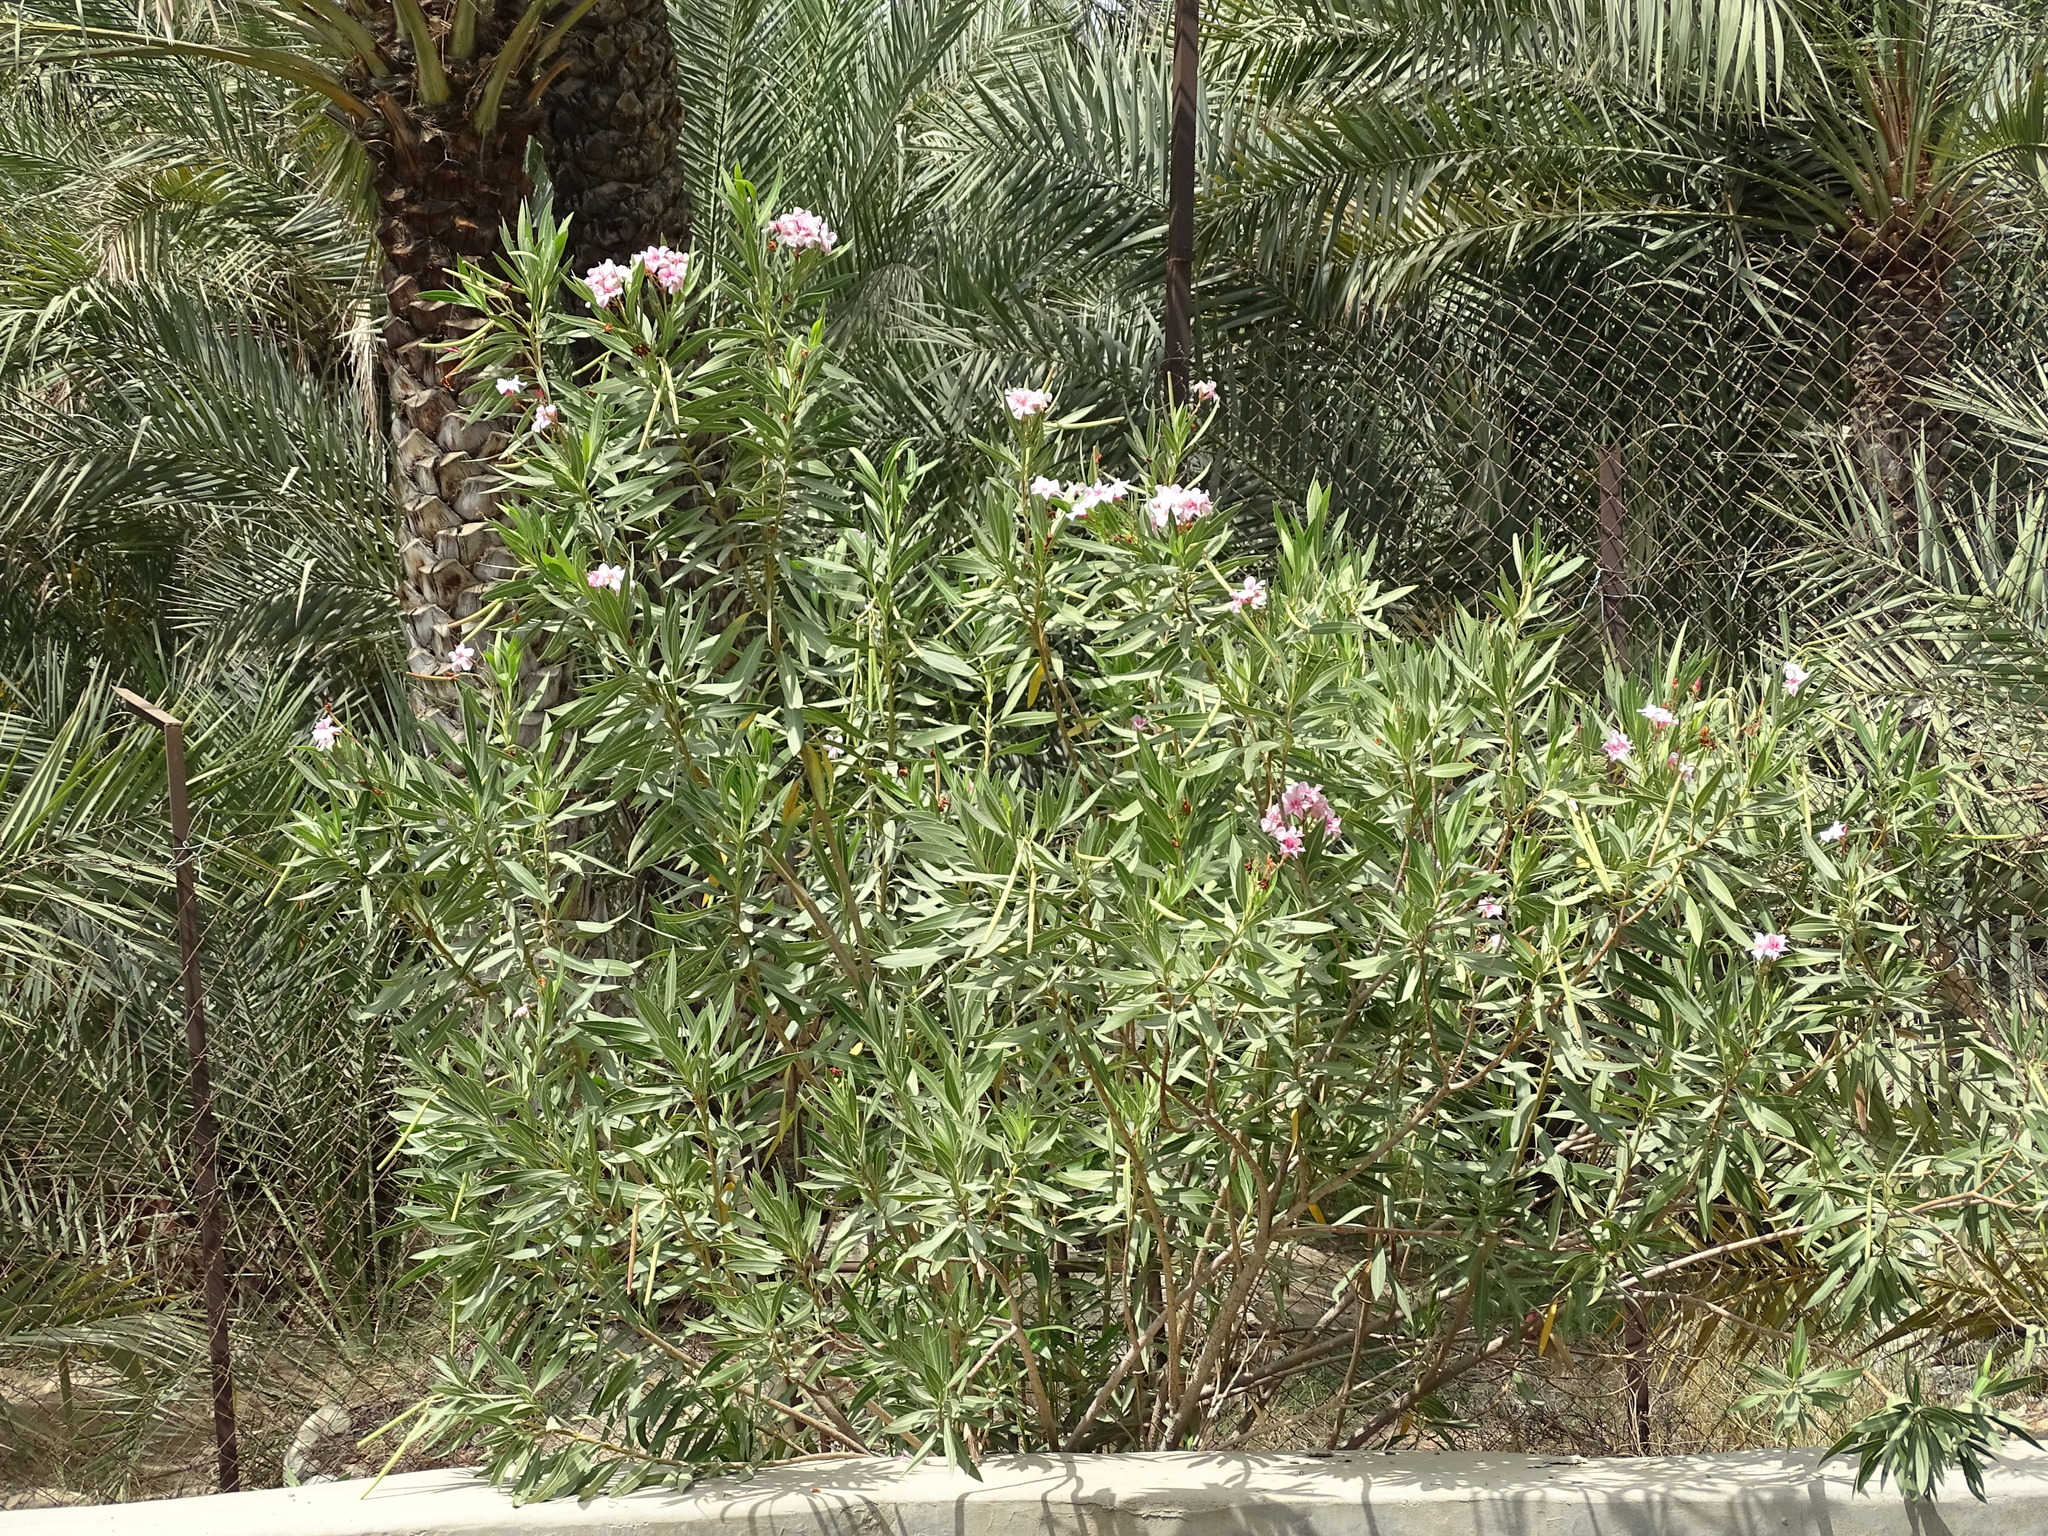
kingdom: Plantae
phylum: Tracheophyta
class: Magnoliopsida
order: Gentianales
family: Apocynaceae
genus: Nerium
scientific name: Nerium oleander
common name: Oleander
